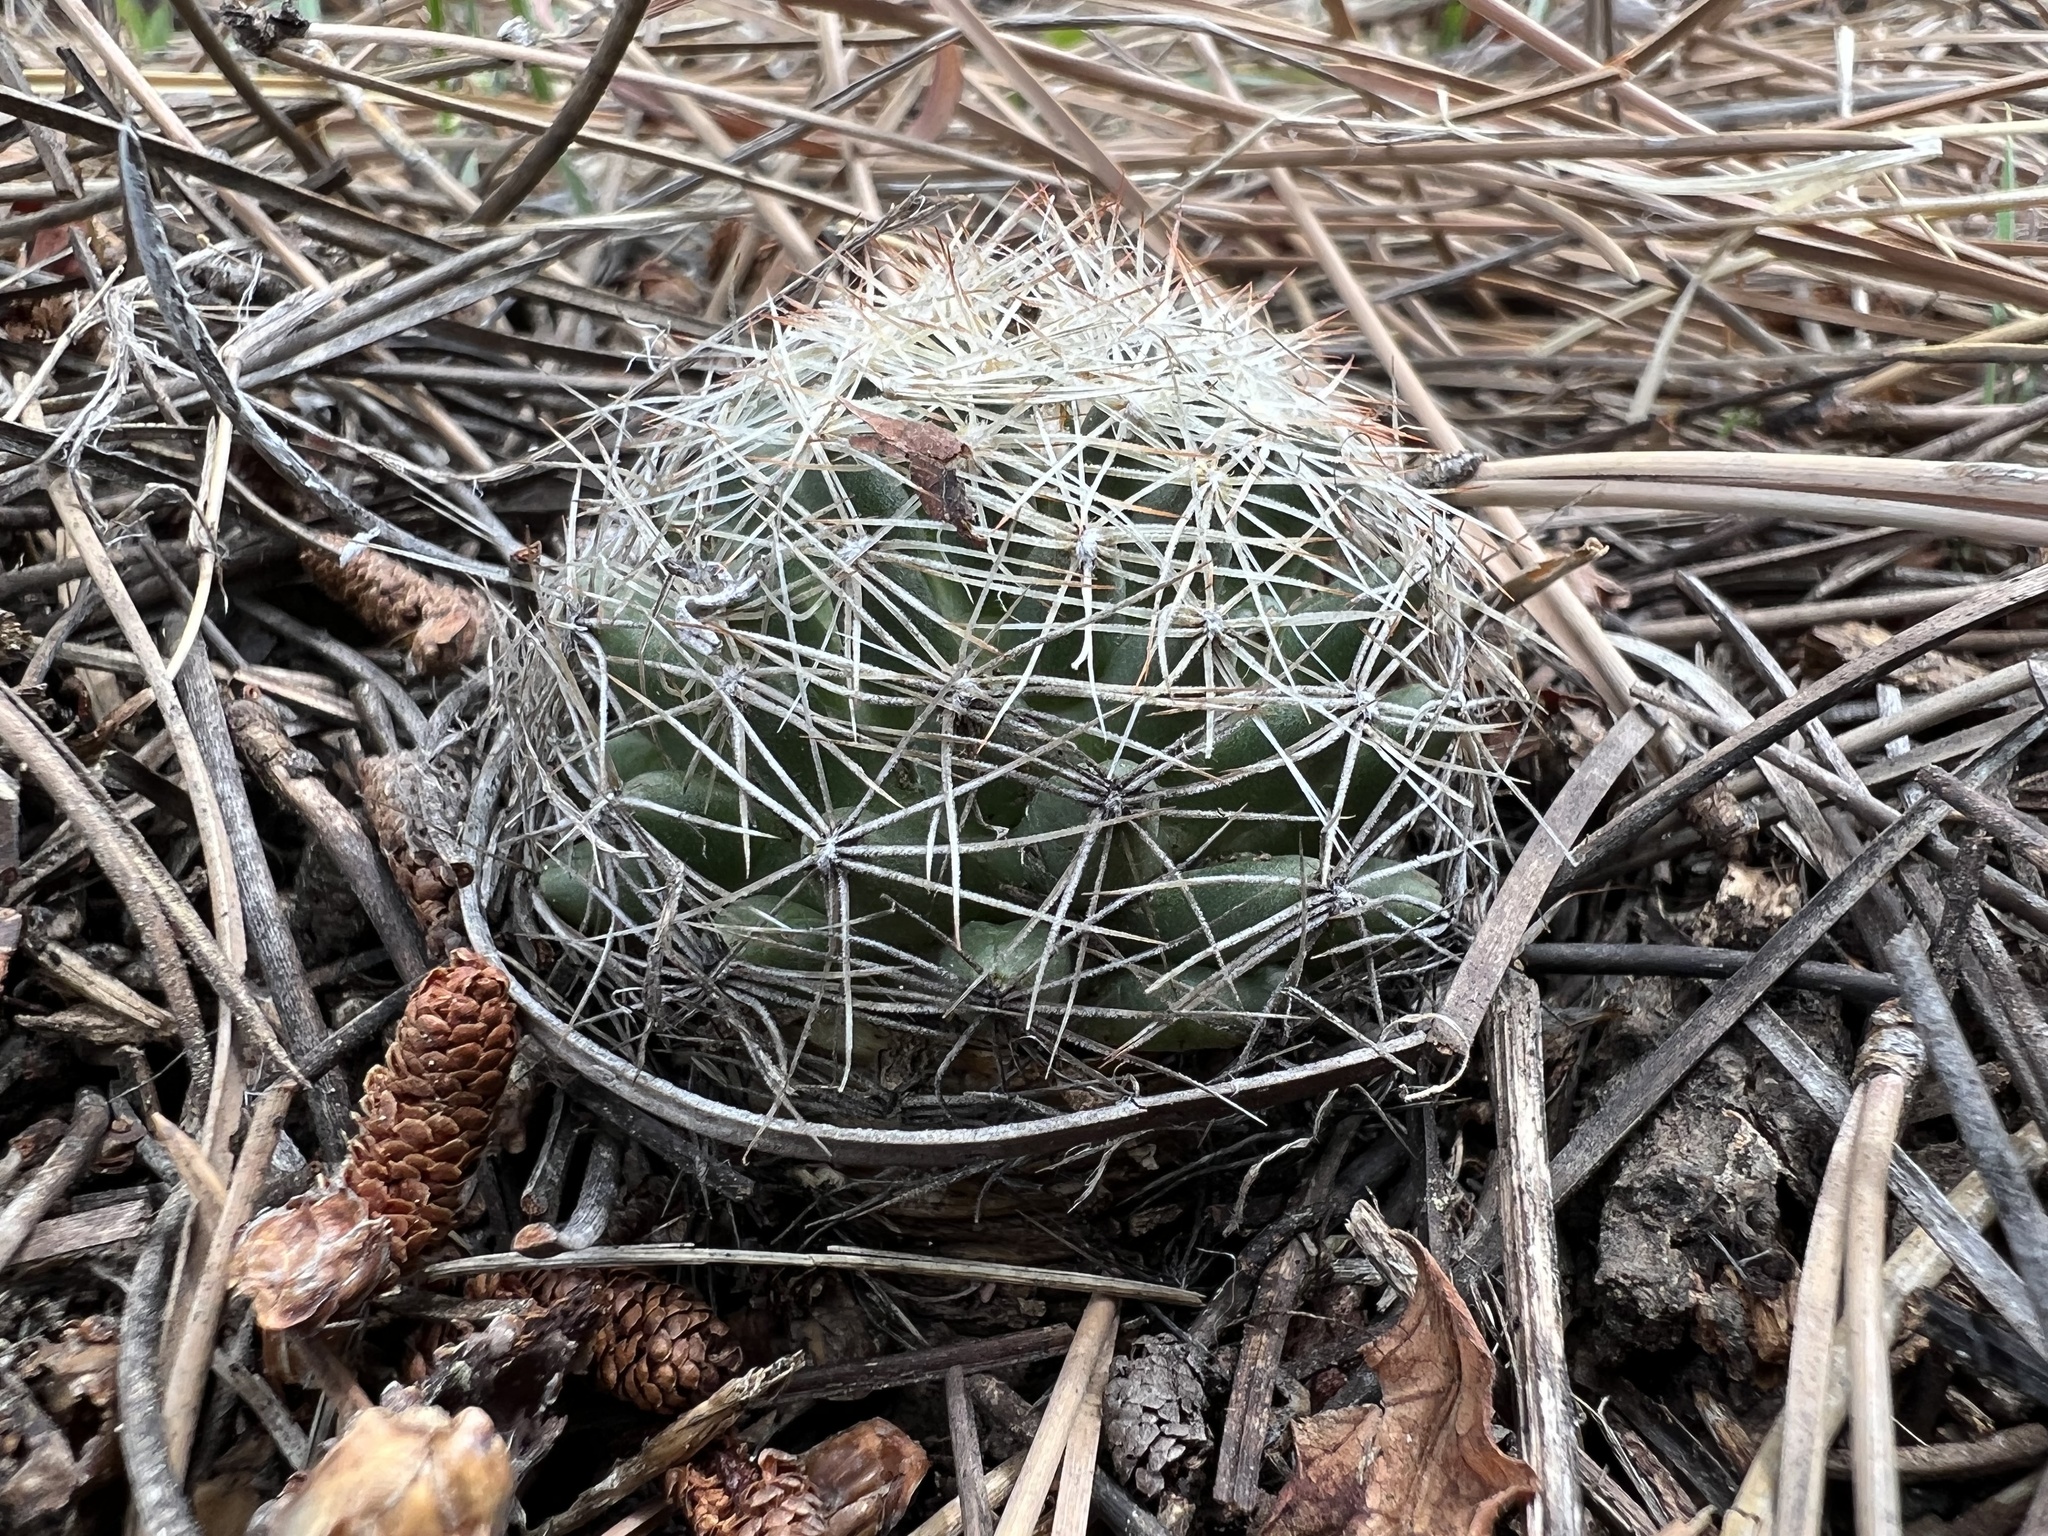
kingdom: Plantae
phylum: Tracheophyta
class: Magnoliopsida
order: Caryophyllales
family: Cactaceae
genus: Pelecyphora
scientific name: Pelecyphora vivipara
